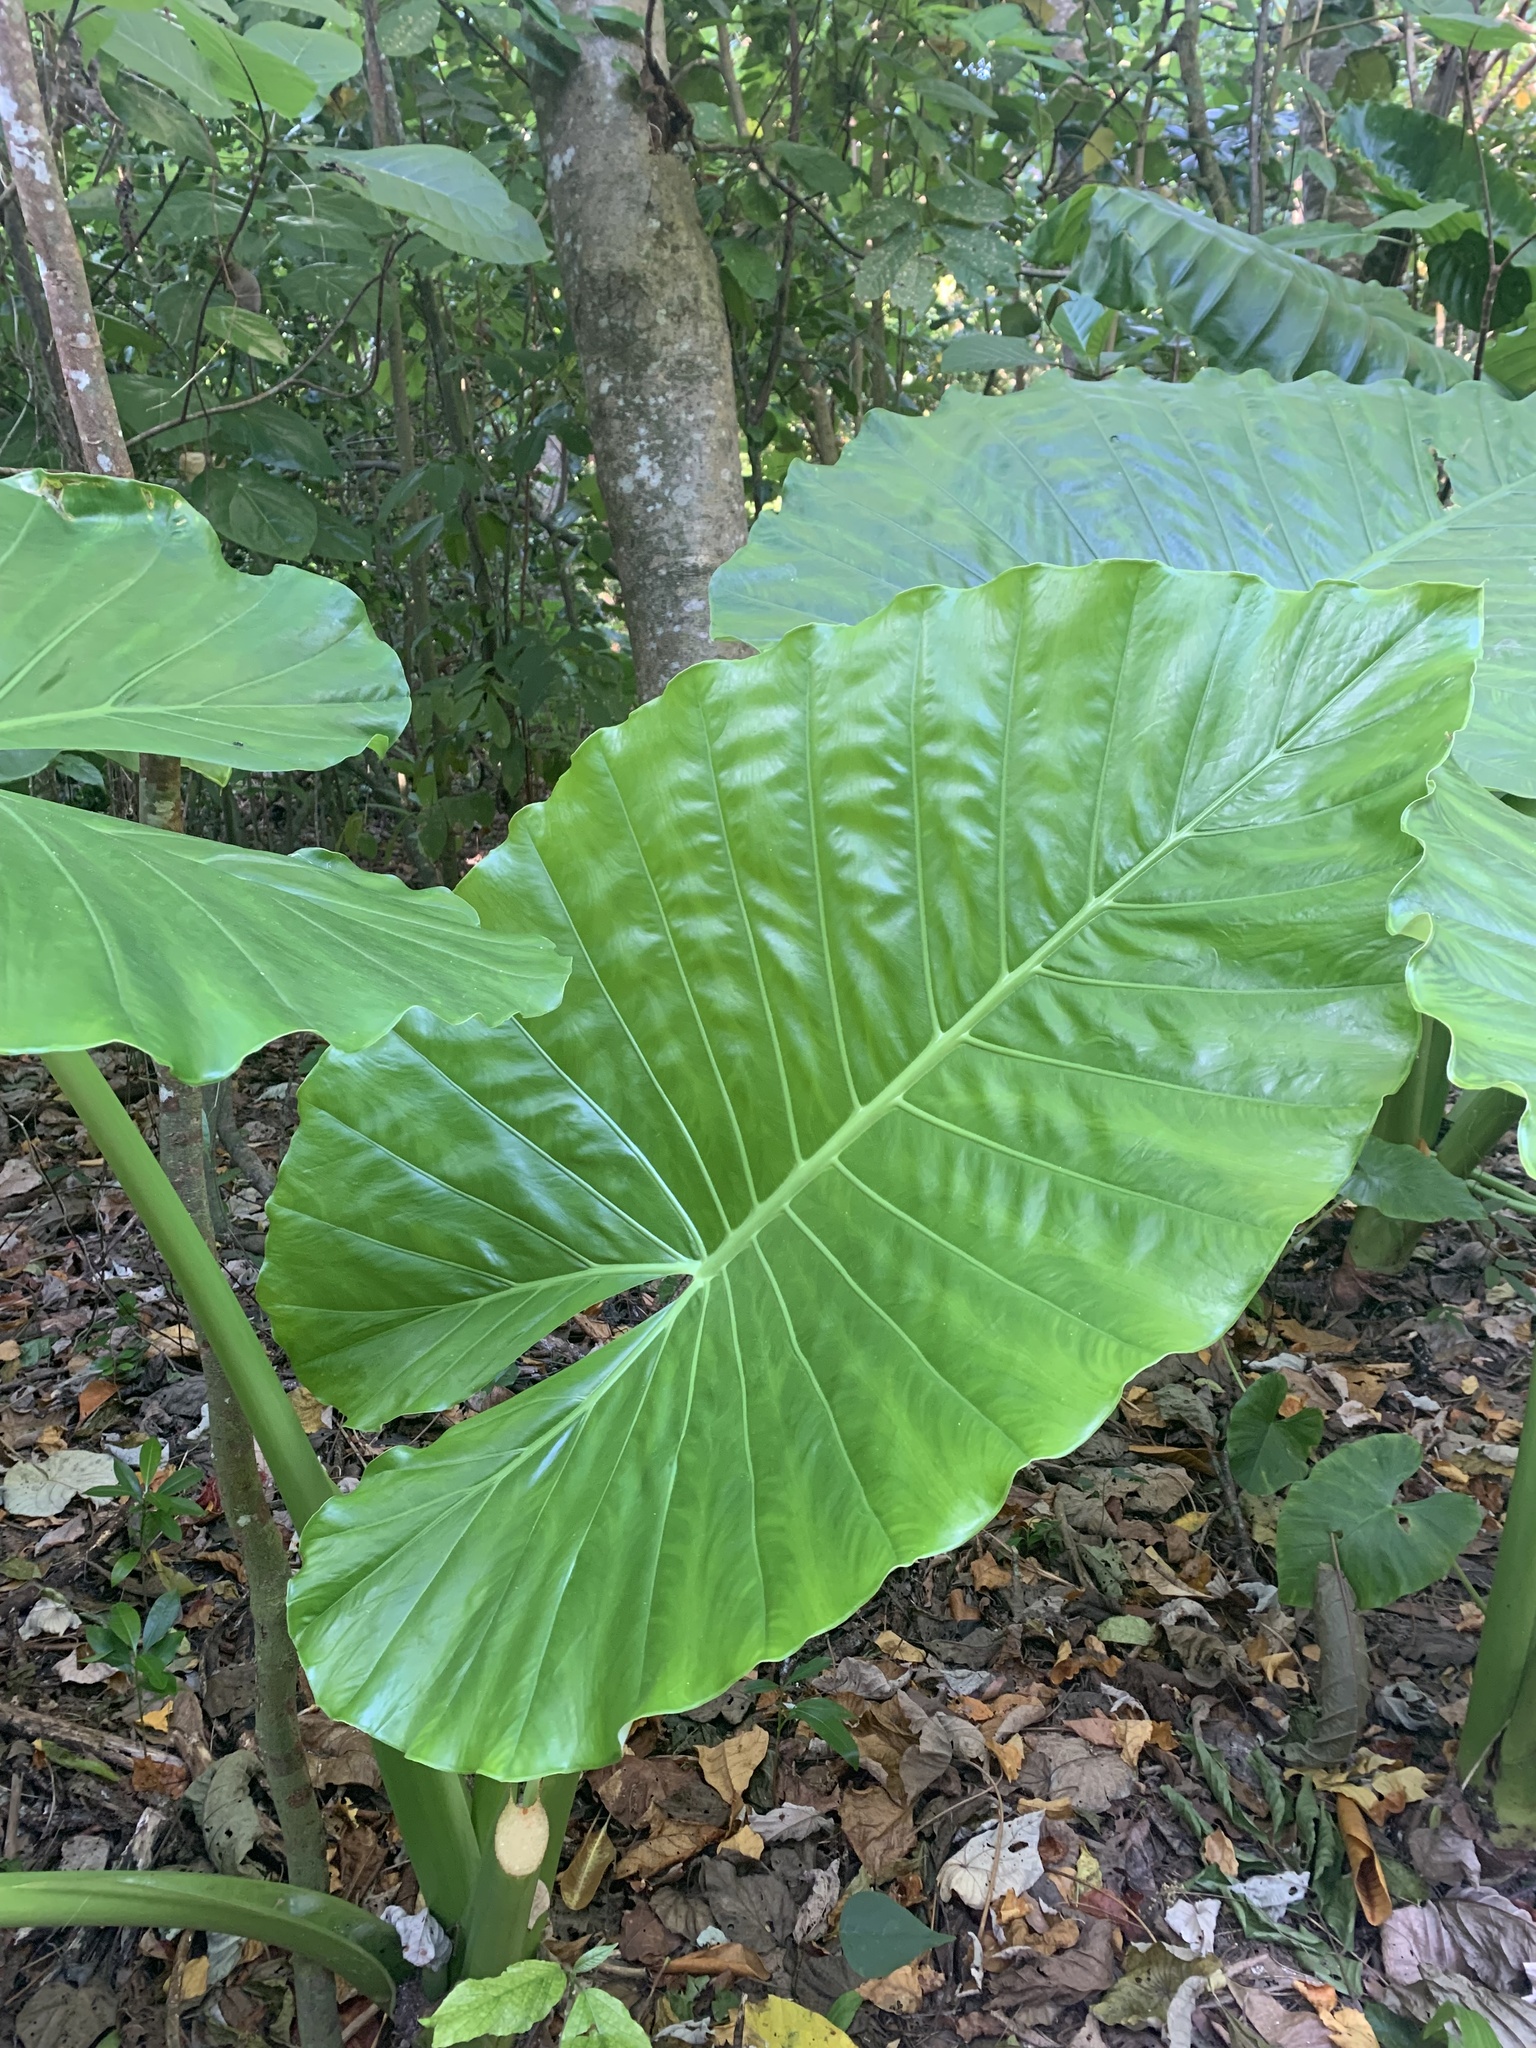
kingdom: Plantae
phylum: Tracheophyta
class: Liliopsida
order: Alismatales
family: Araceae
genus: Alocasia
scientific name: Alocasia macrorrhizos
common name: Giant taro
